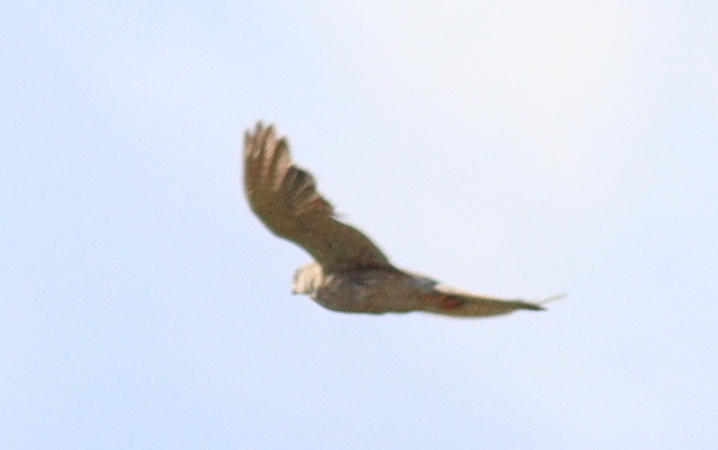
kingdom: Animalia
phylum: Chordata
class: Aves
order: Falconiformes
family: Falconidae
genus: Falco
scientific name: Falco tinnunculus
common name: Common kestrel
